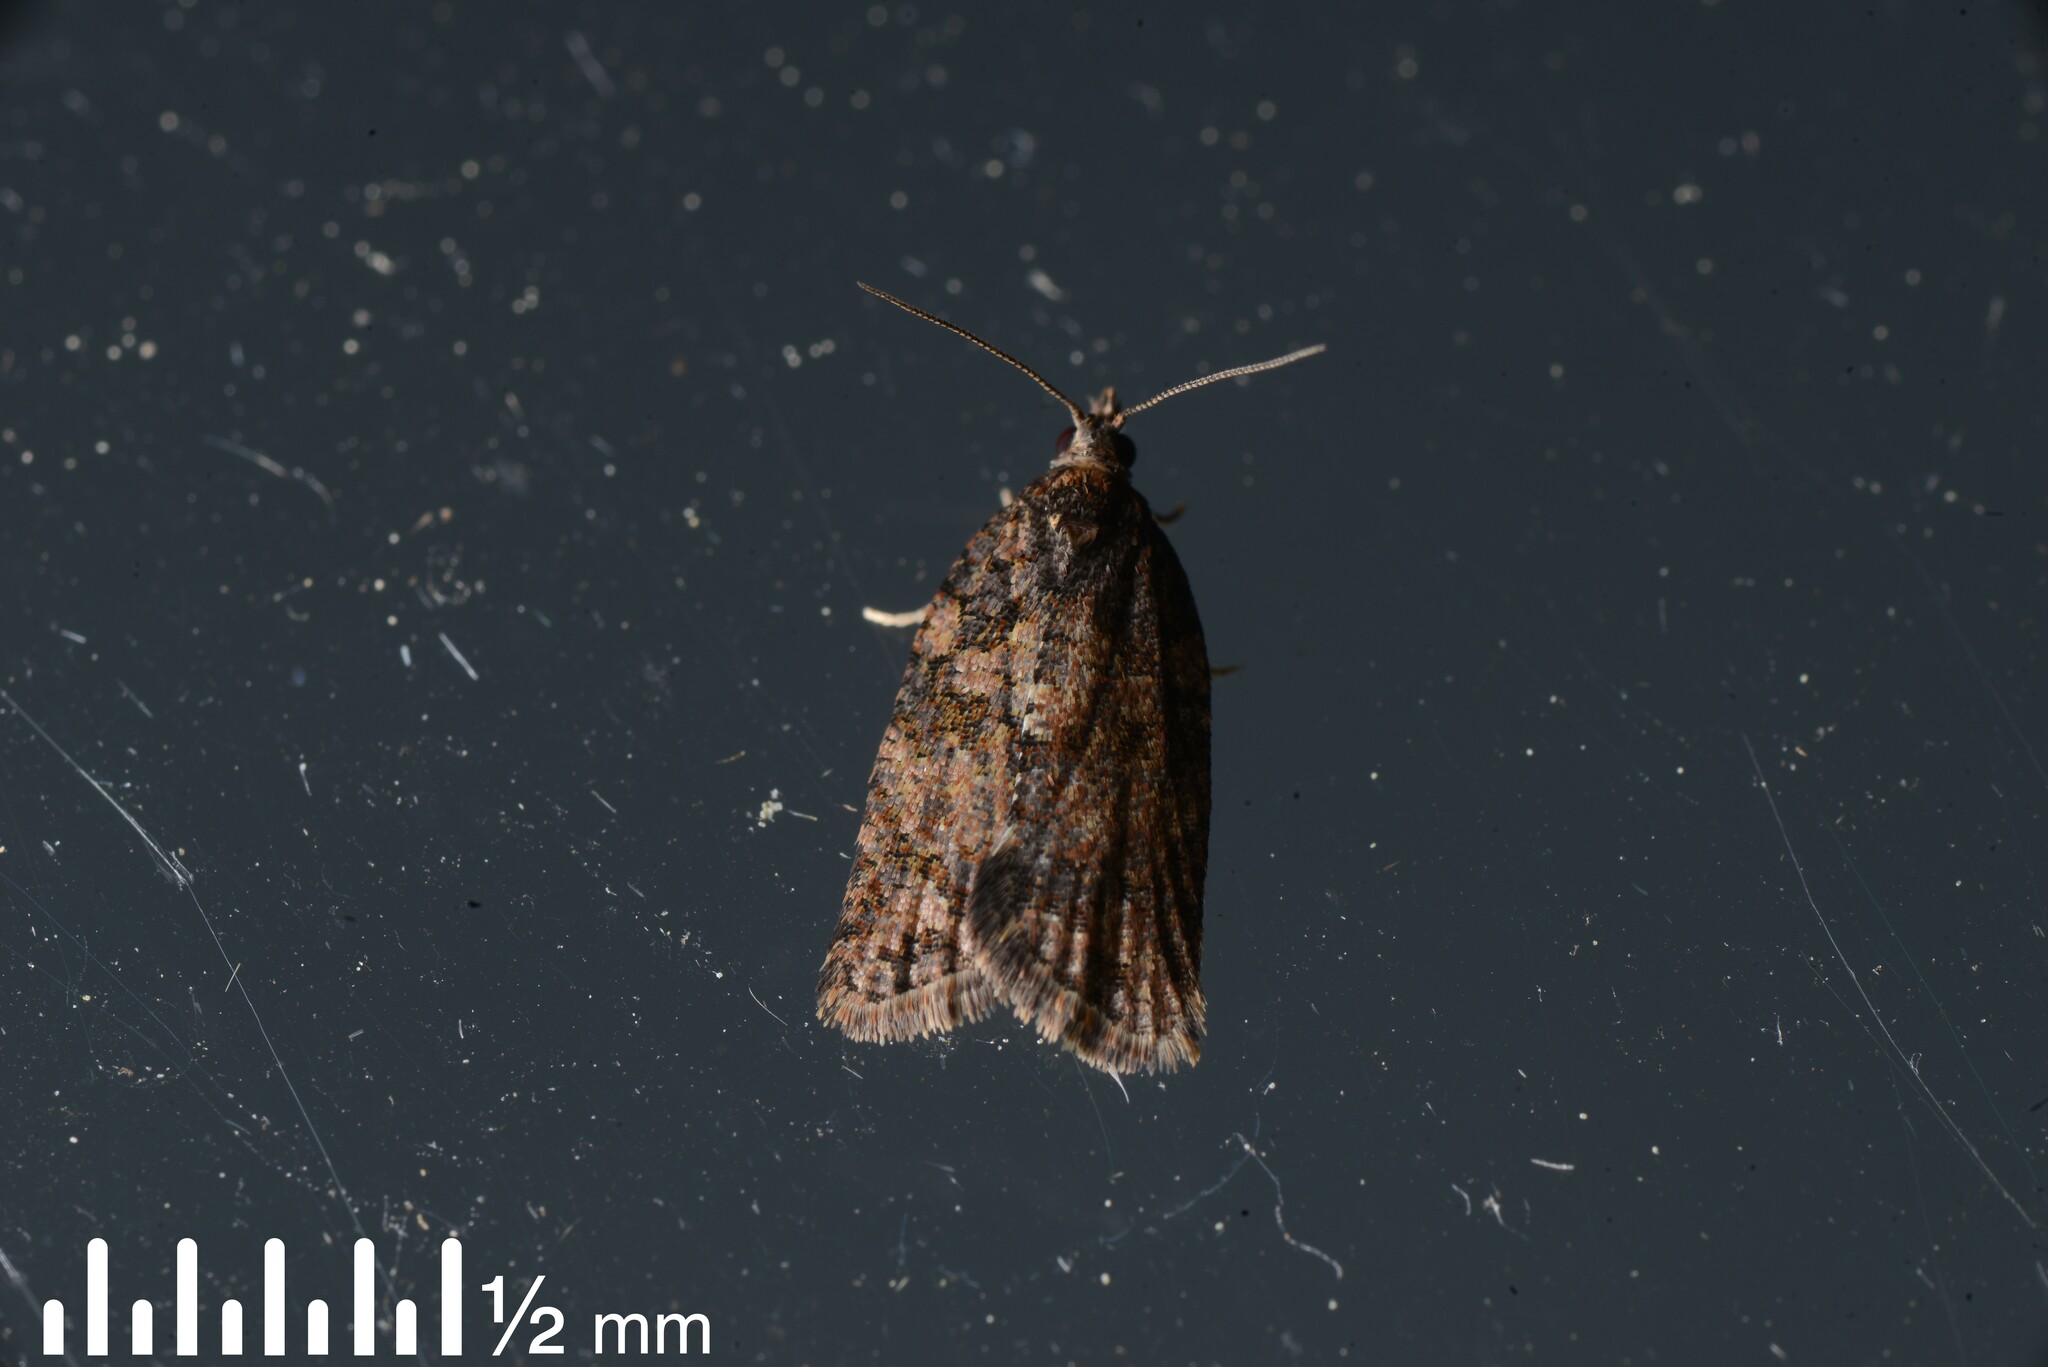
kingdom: Animalia
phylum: Arthropoda
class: Insecta
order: Lepidoptera
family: Tortricidae
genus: Capua
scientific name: Capua intractana
